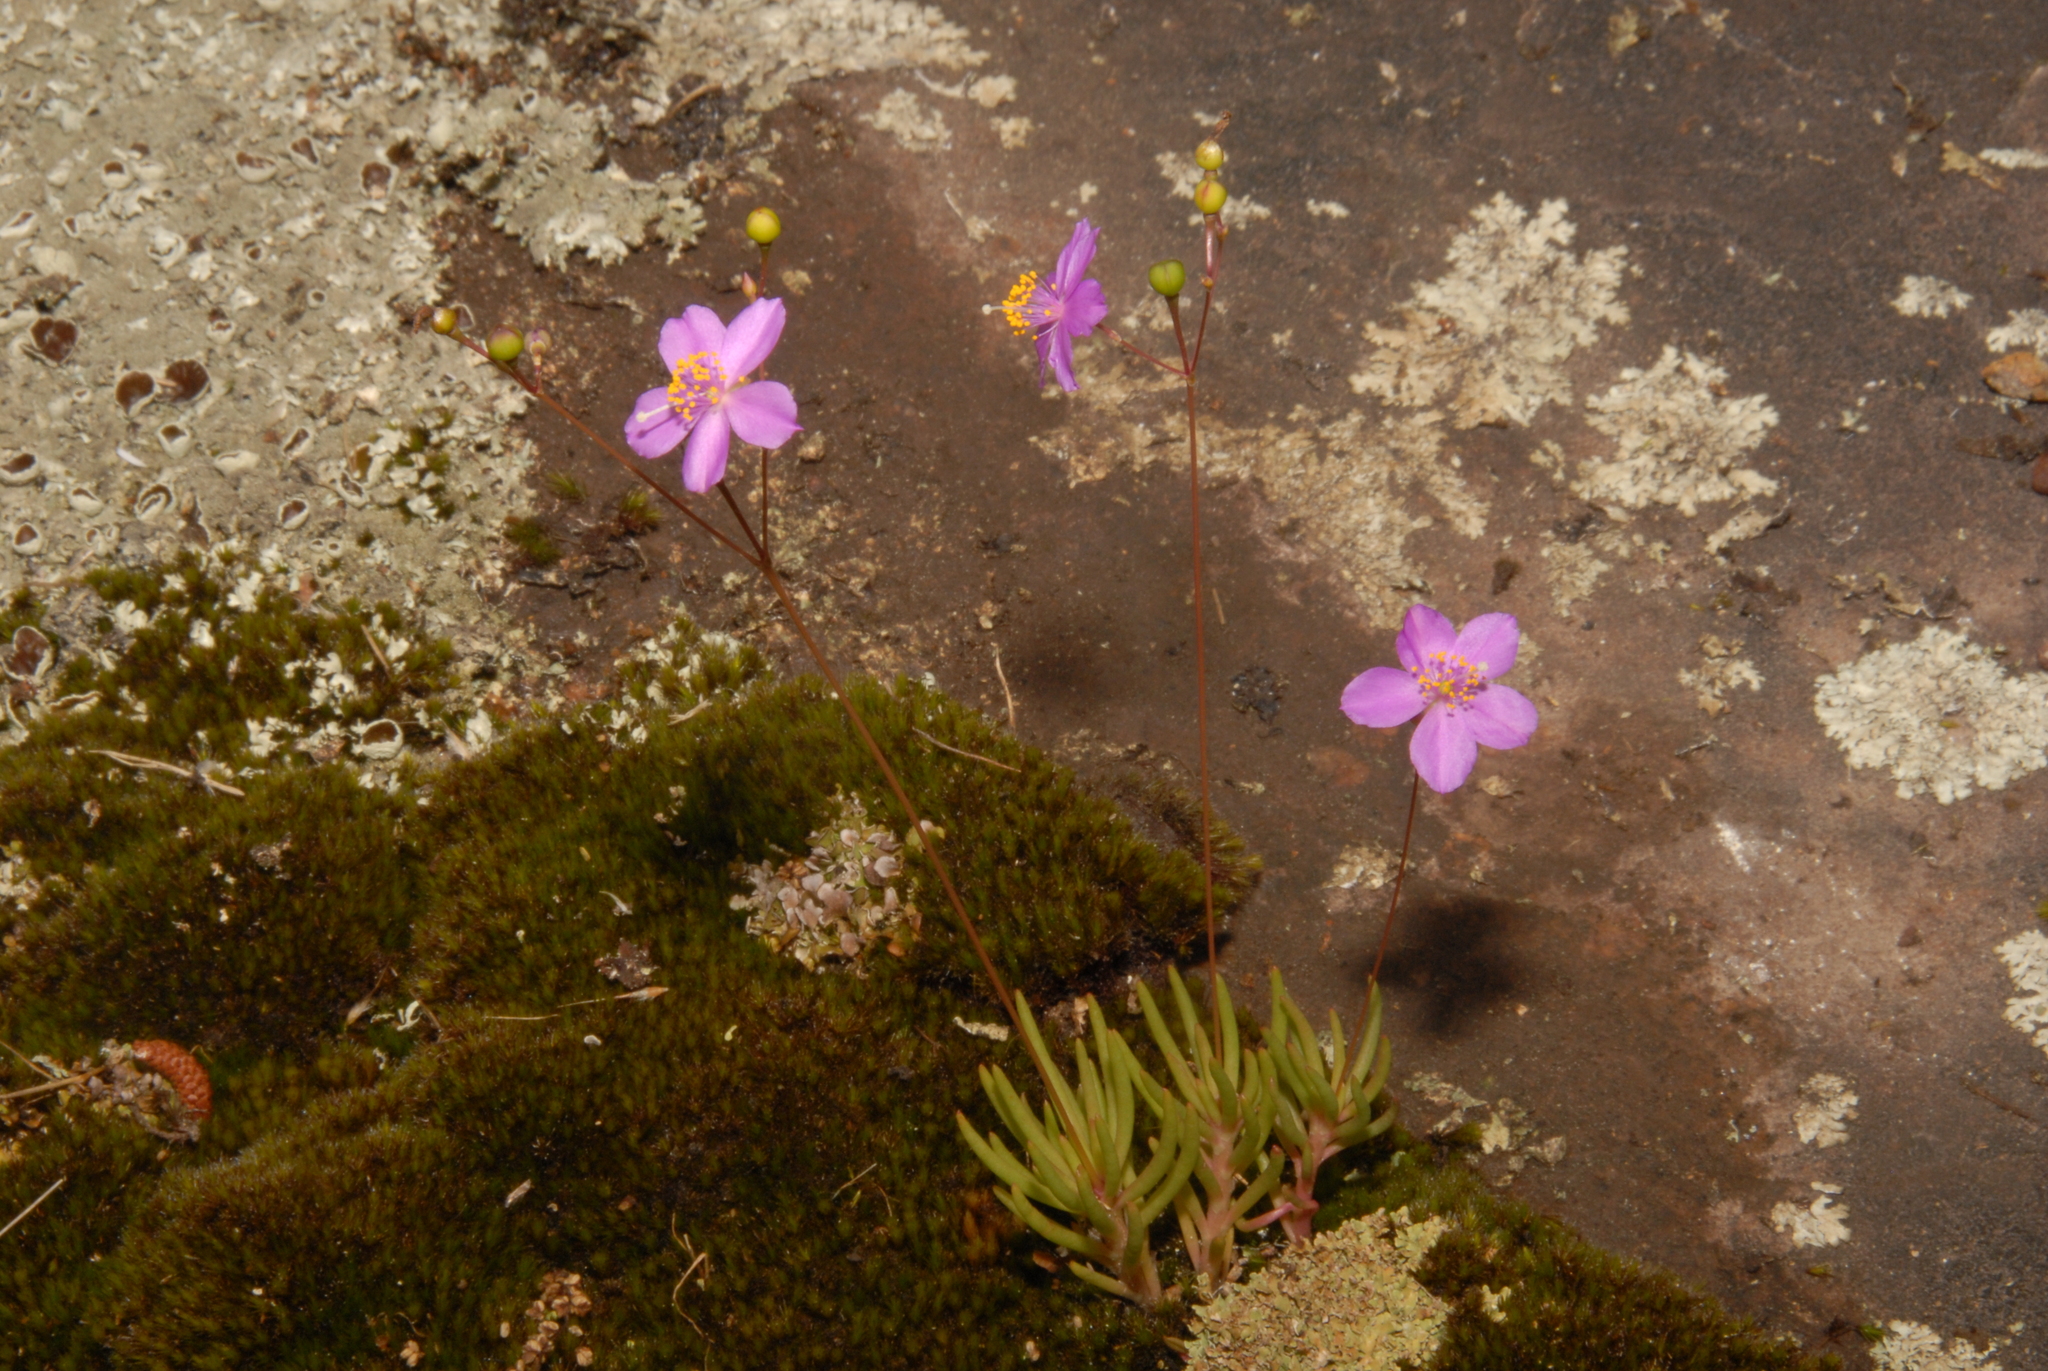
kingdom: Plantae
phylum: Tracheophyta
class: Magnoliopsida
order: Caryophyllales
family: Montiaceae
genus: Phemeranthus
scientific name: Phemeranthus mengesii
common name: Menges' fameflower
